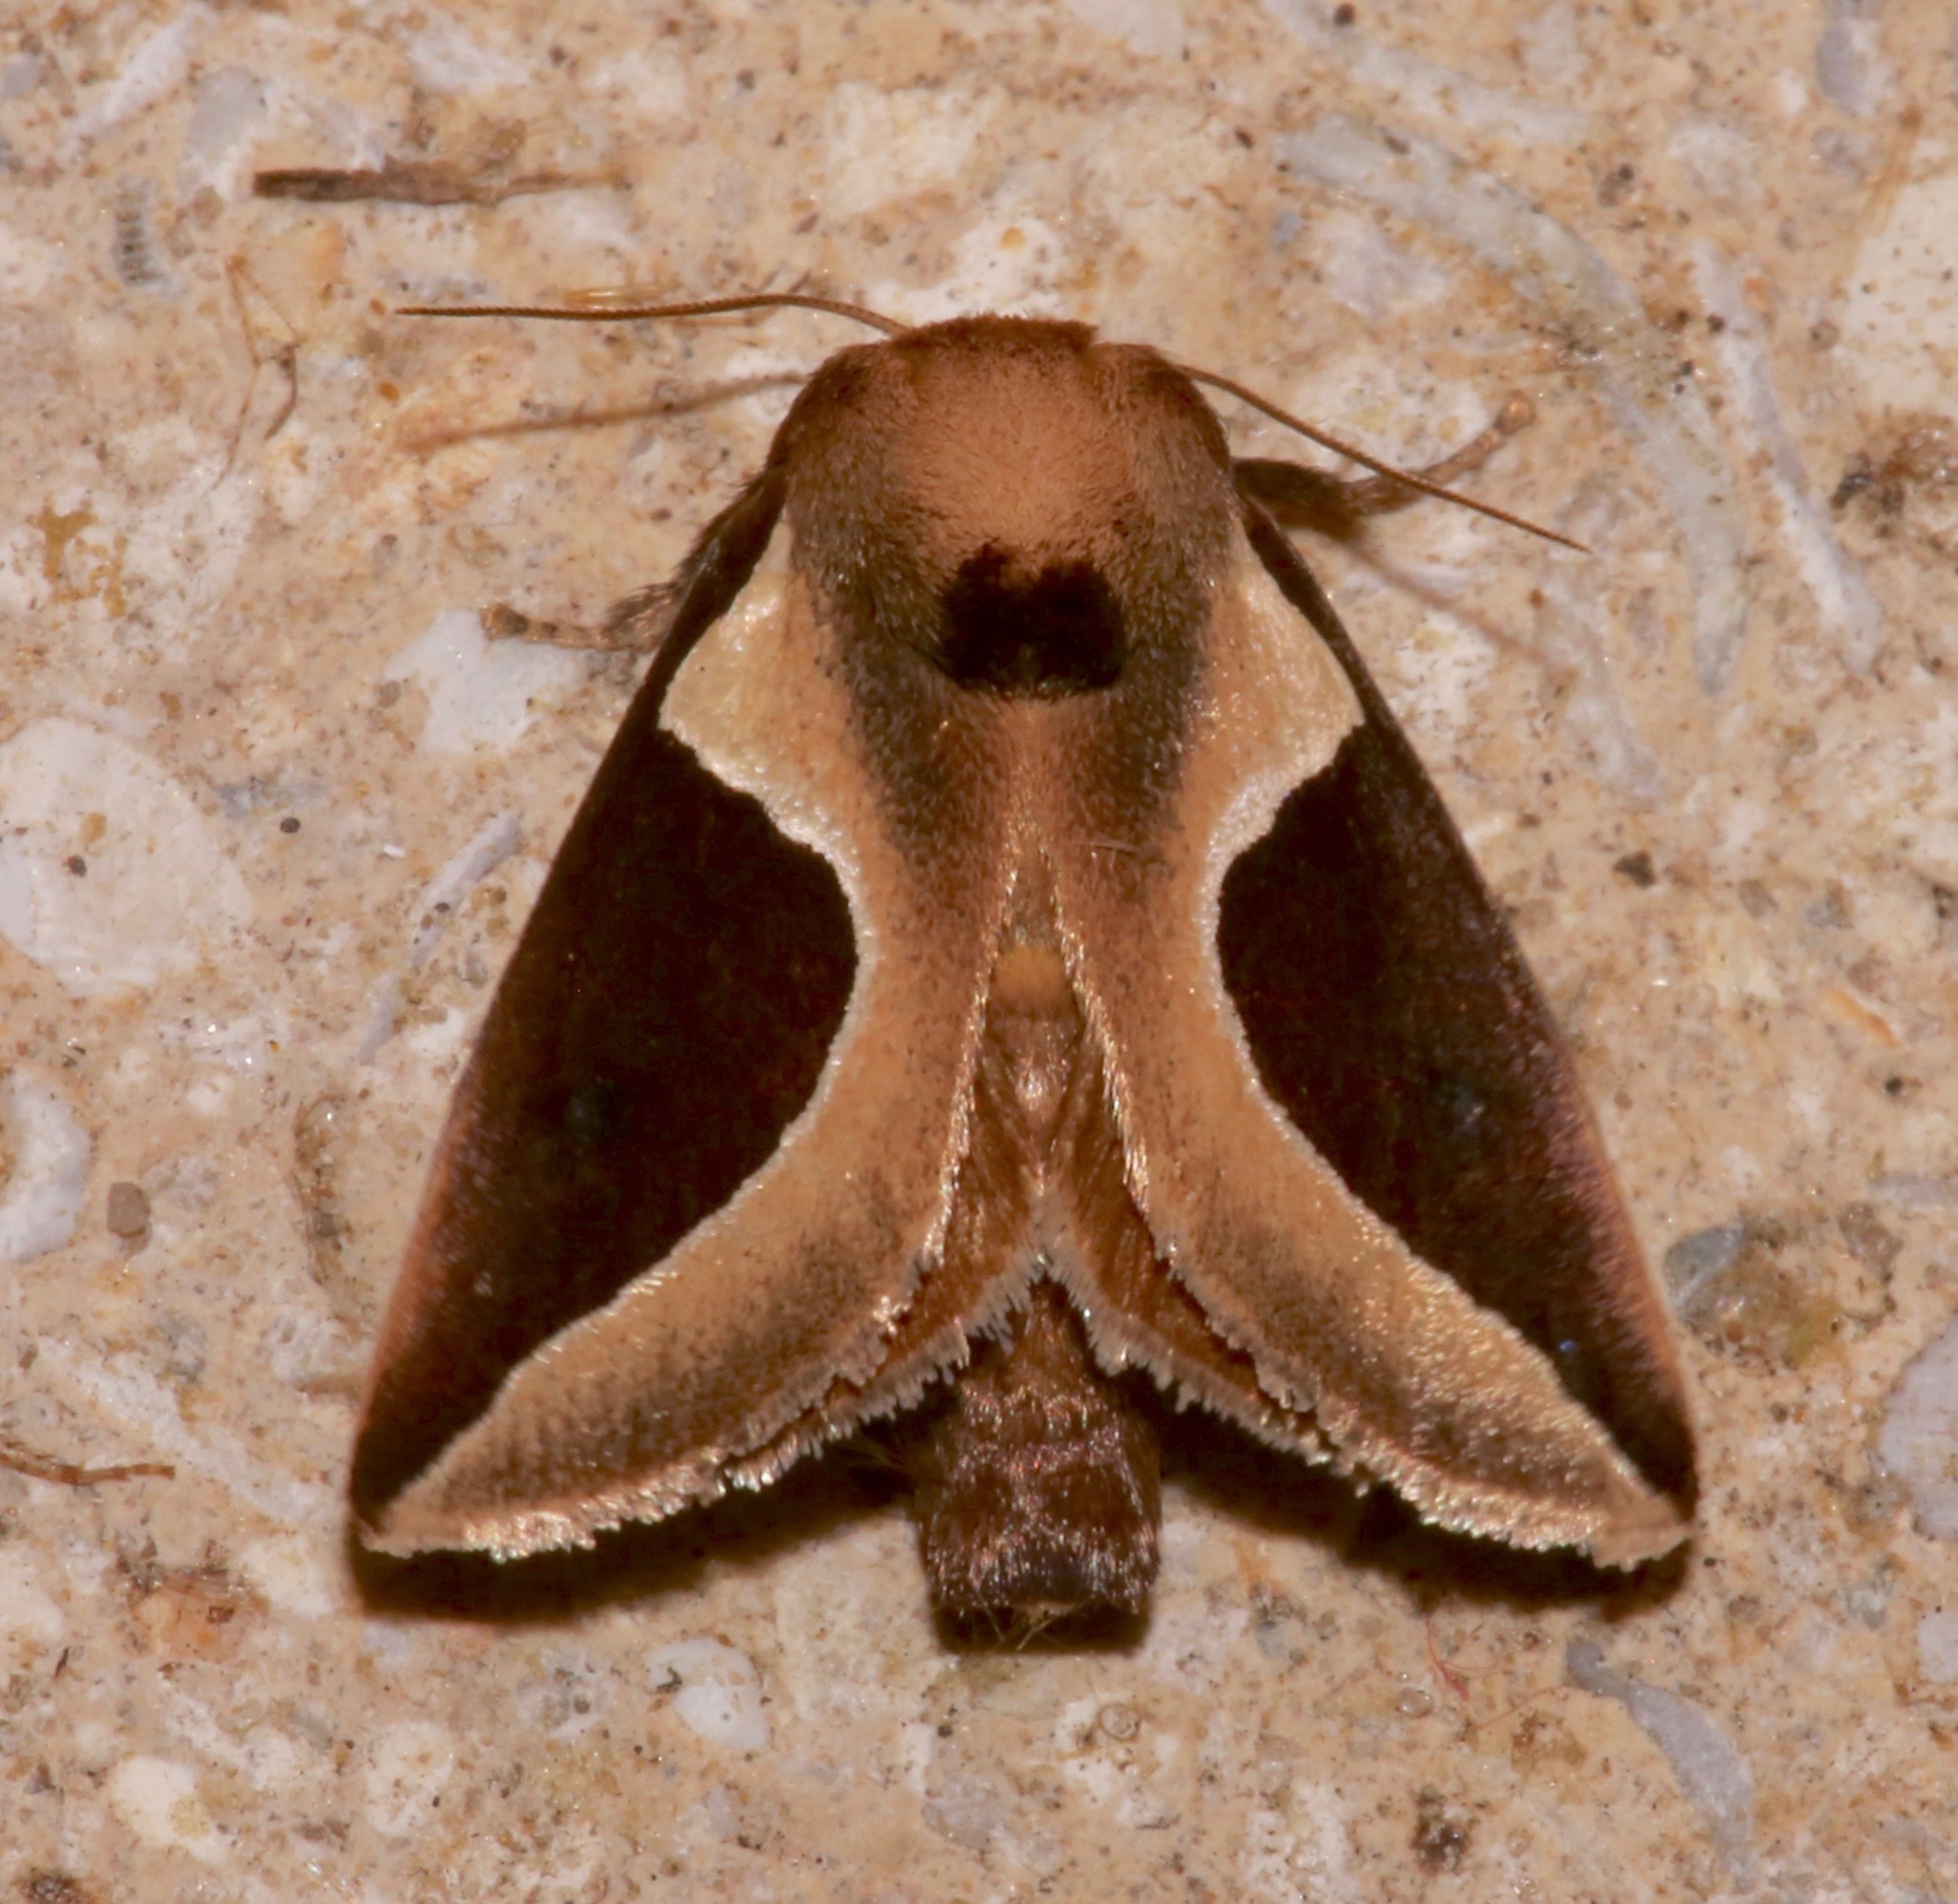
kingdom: Animalia
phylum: Arthropoda
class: Insecta
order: Lepidoptera
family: Limacodidae
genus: Prolimacodes
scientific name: Prolimacodes badia
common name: Skiff moth
